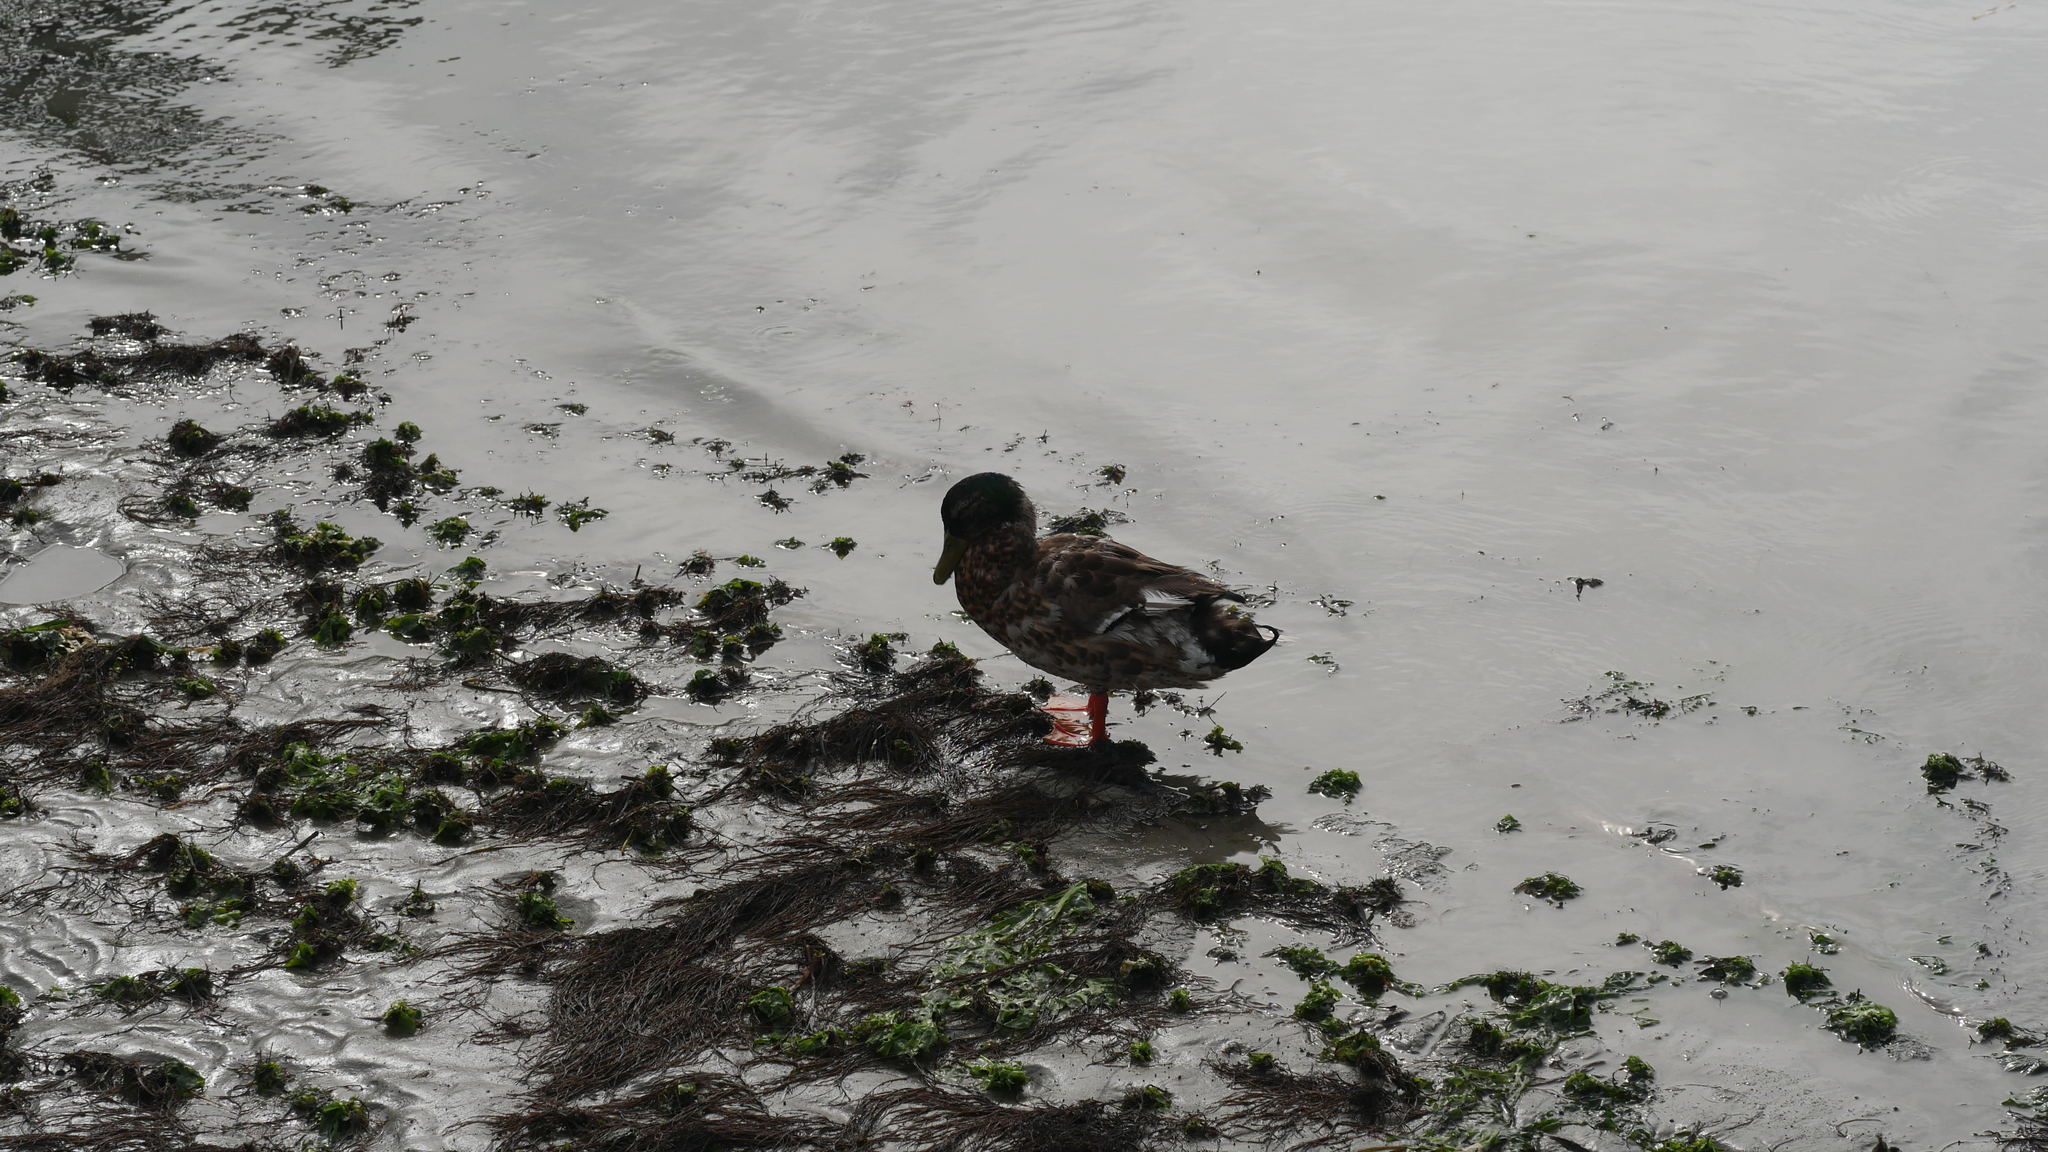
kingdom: Animalia
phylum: Chordata
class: Aves
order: Anseriformes
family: Anatidae
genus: Anas
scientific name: Anas platyrhynchos
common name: Mallard
